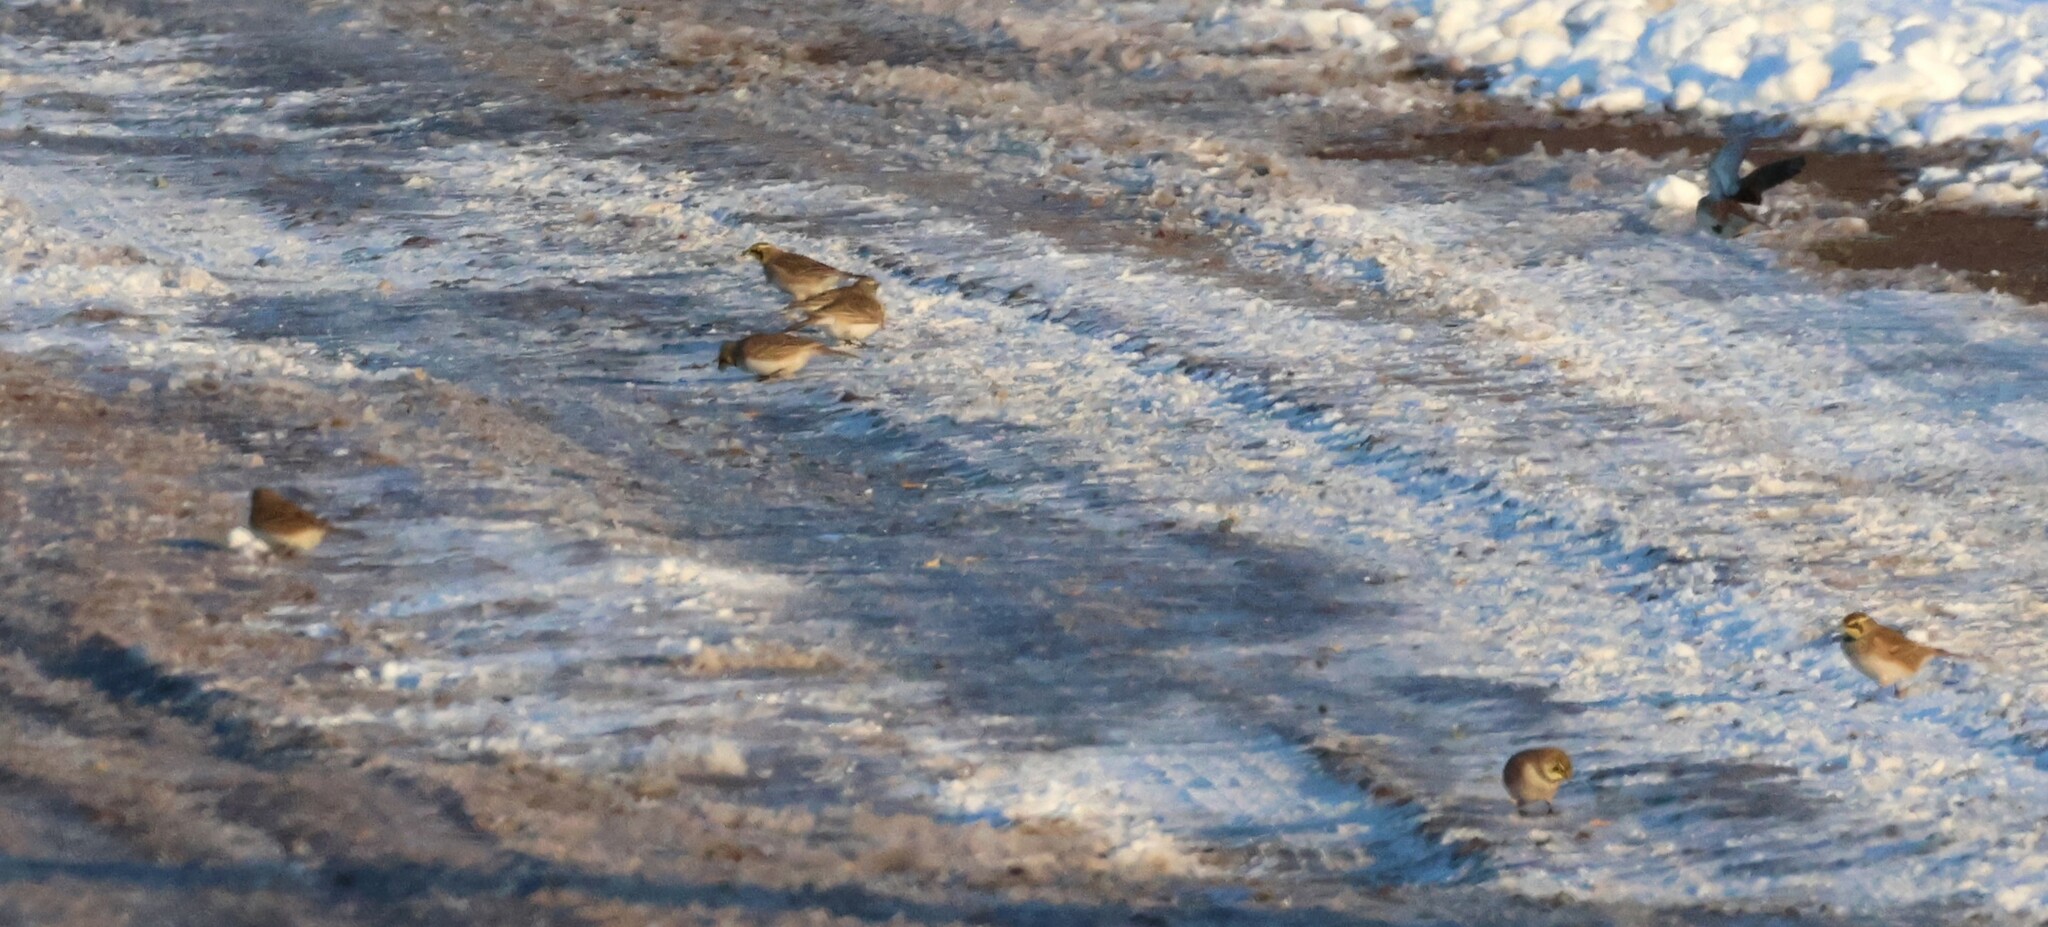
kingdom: Animalia
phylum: Chordata
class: Aves
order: Passeriformes
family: Alaudidae
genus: Eremophila
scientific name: Eremophila alpestris
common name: Horned lark
